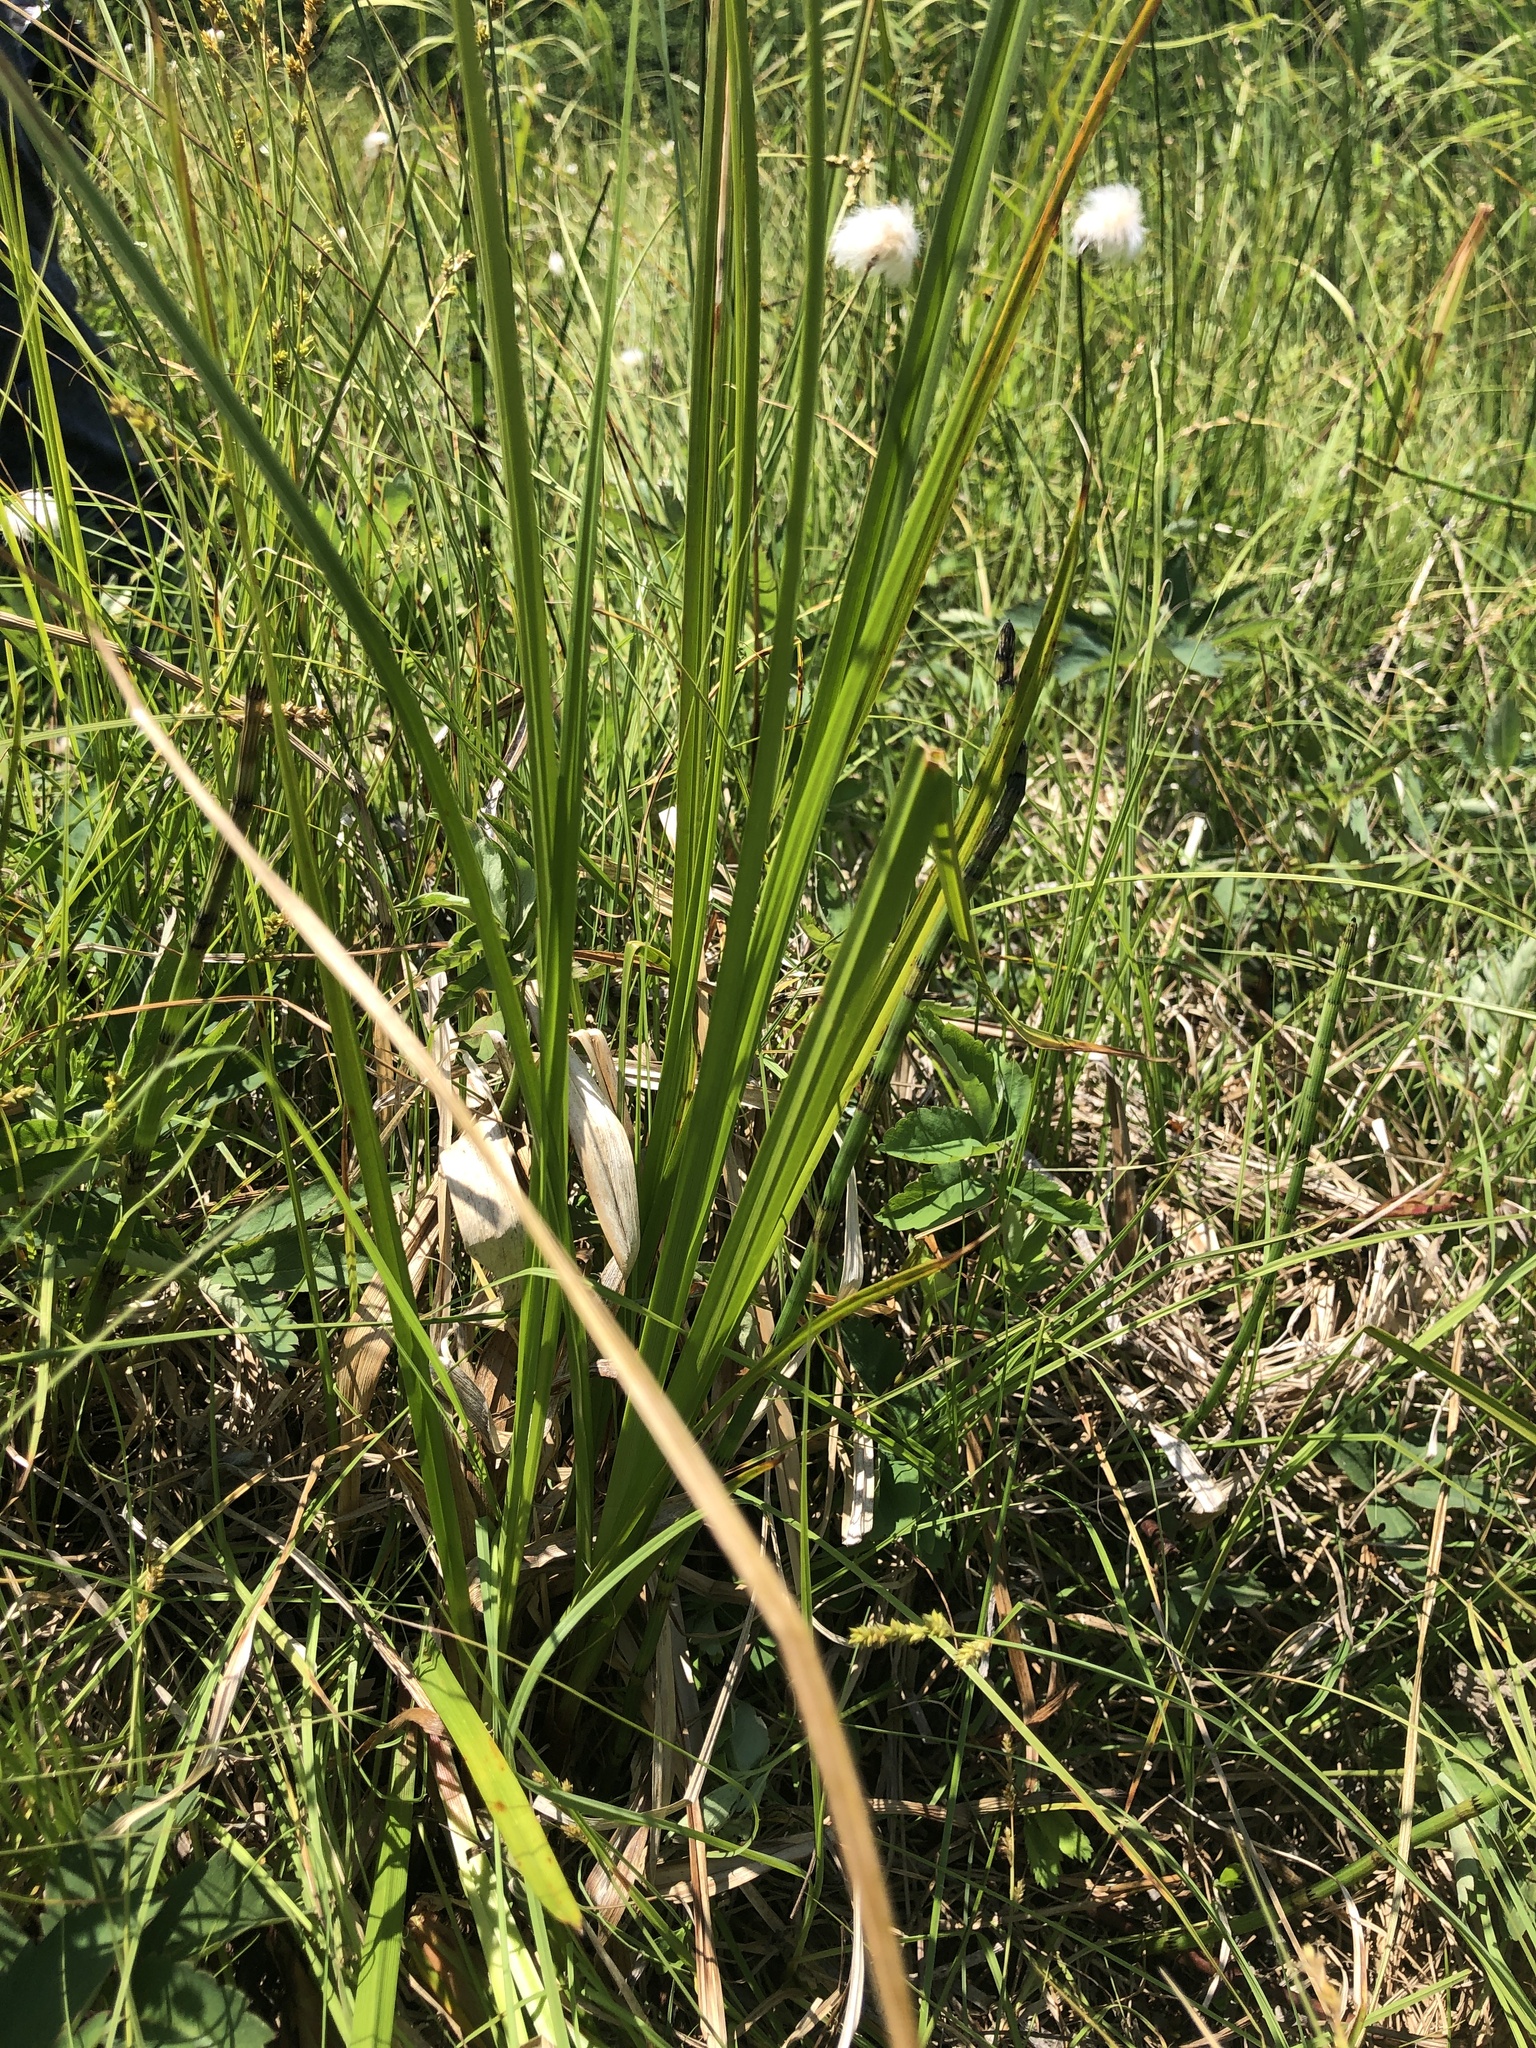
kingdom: Plantae
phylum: Tracheophyta
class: Liliopsida
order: Poales
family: Cyperaceae
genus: Carex
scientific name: Carex utriculata
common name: Beaked sedge
